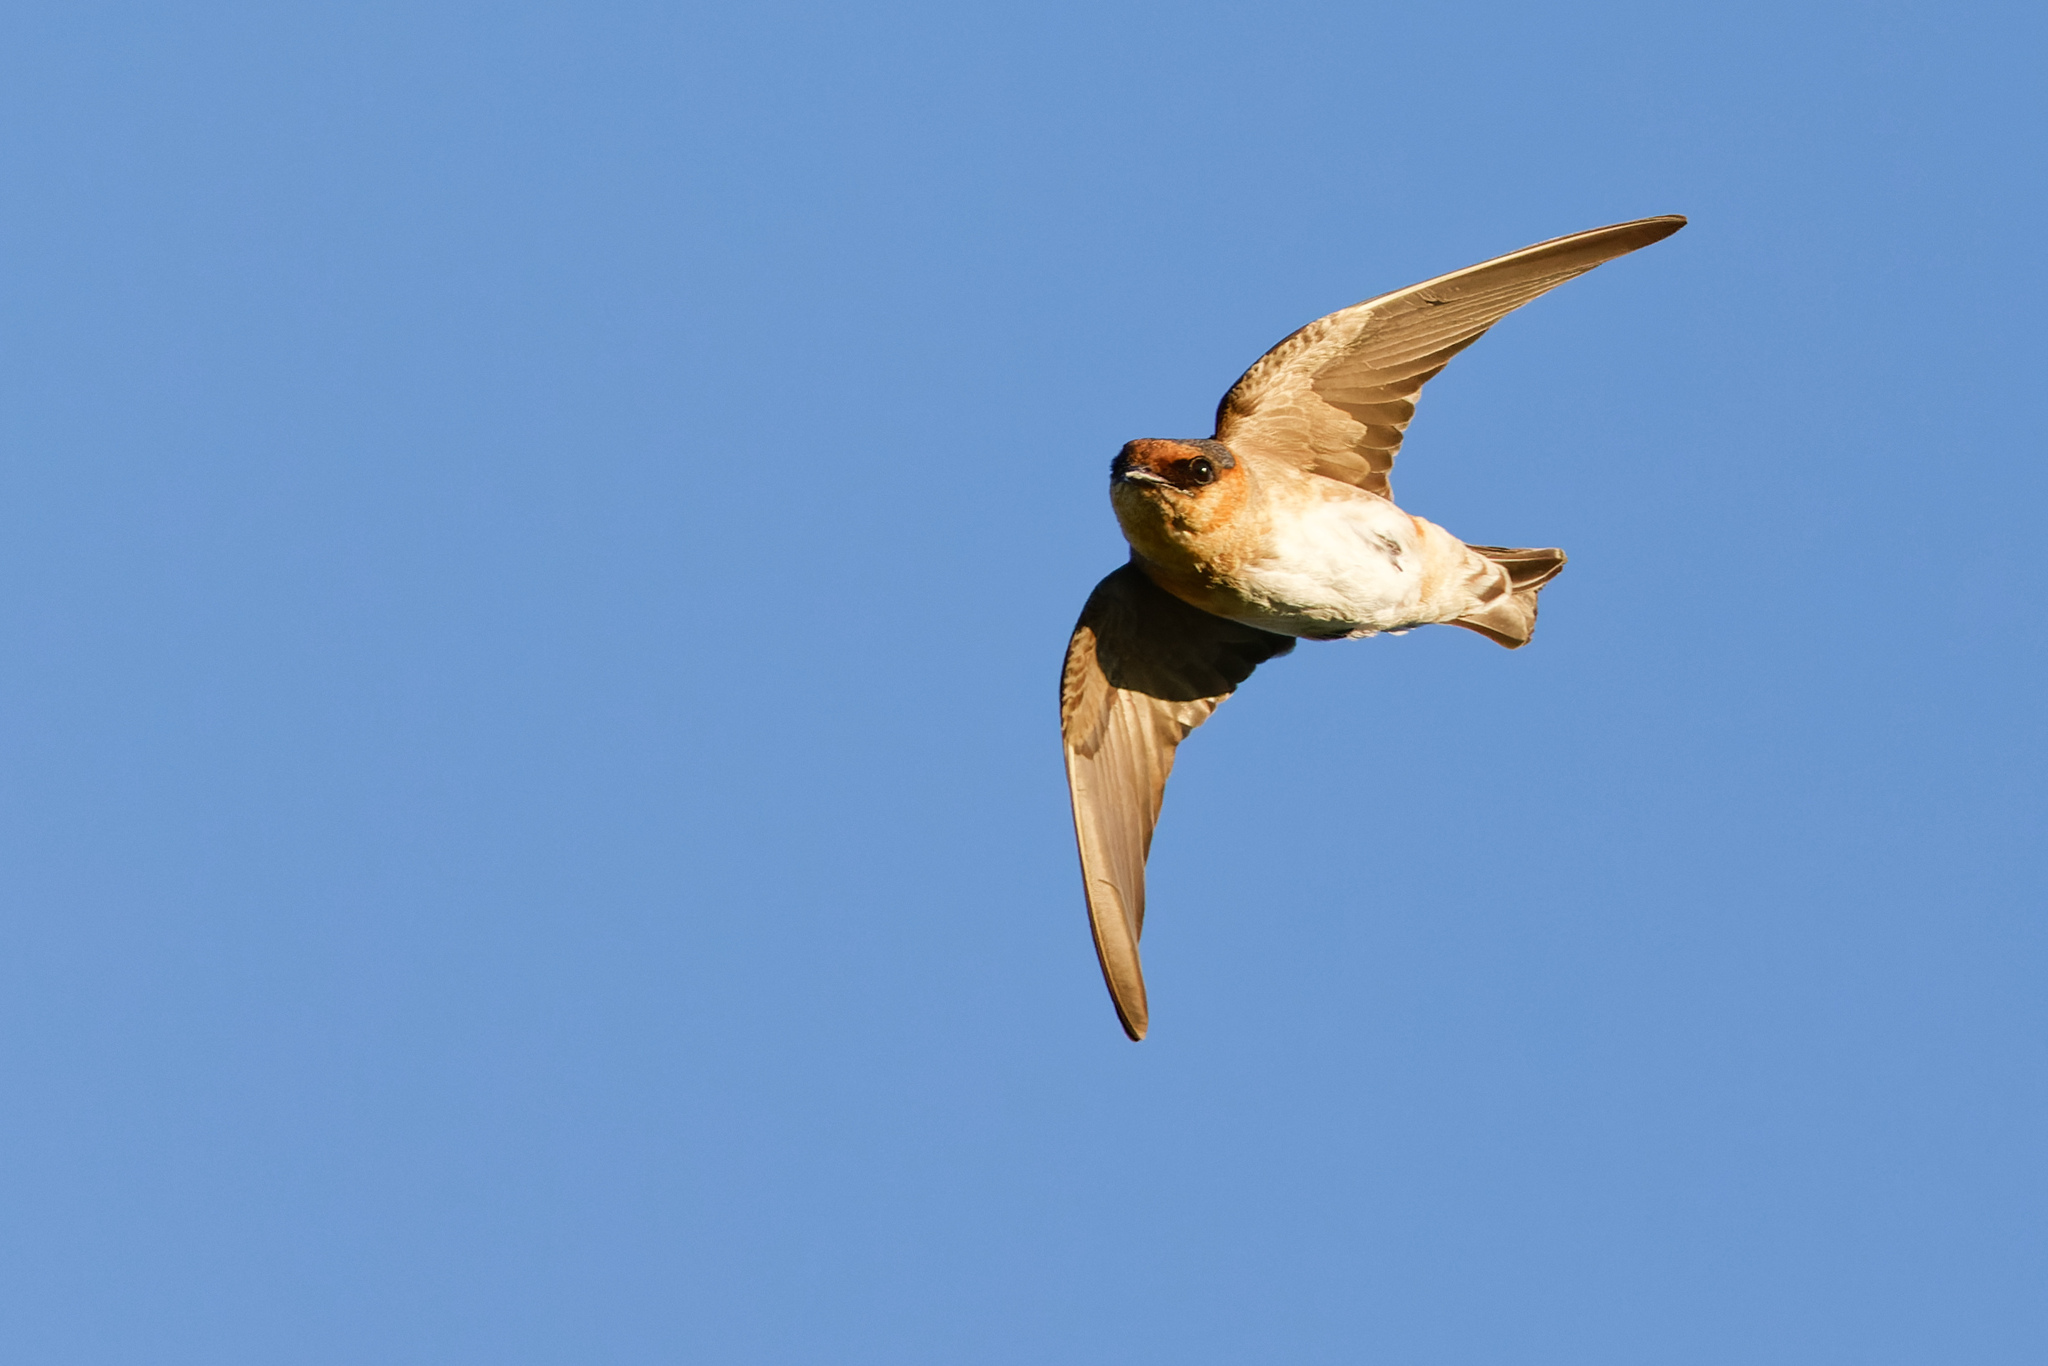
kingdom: Animalia
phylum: Chordata
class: Aves
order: Passeriformes
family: Hirundinidae
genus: Petrochelidon
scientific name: Petrochelidon fulva
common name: Cave swallow
